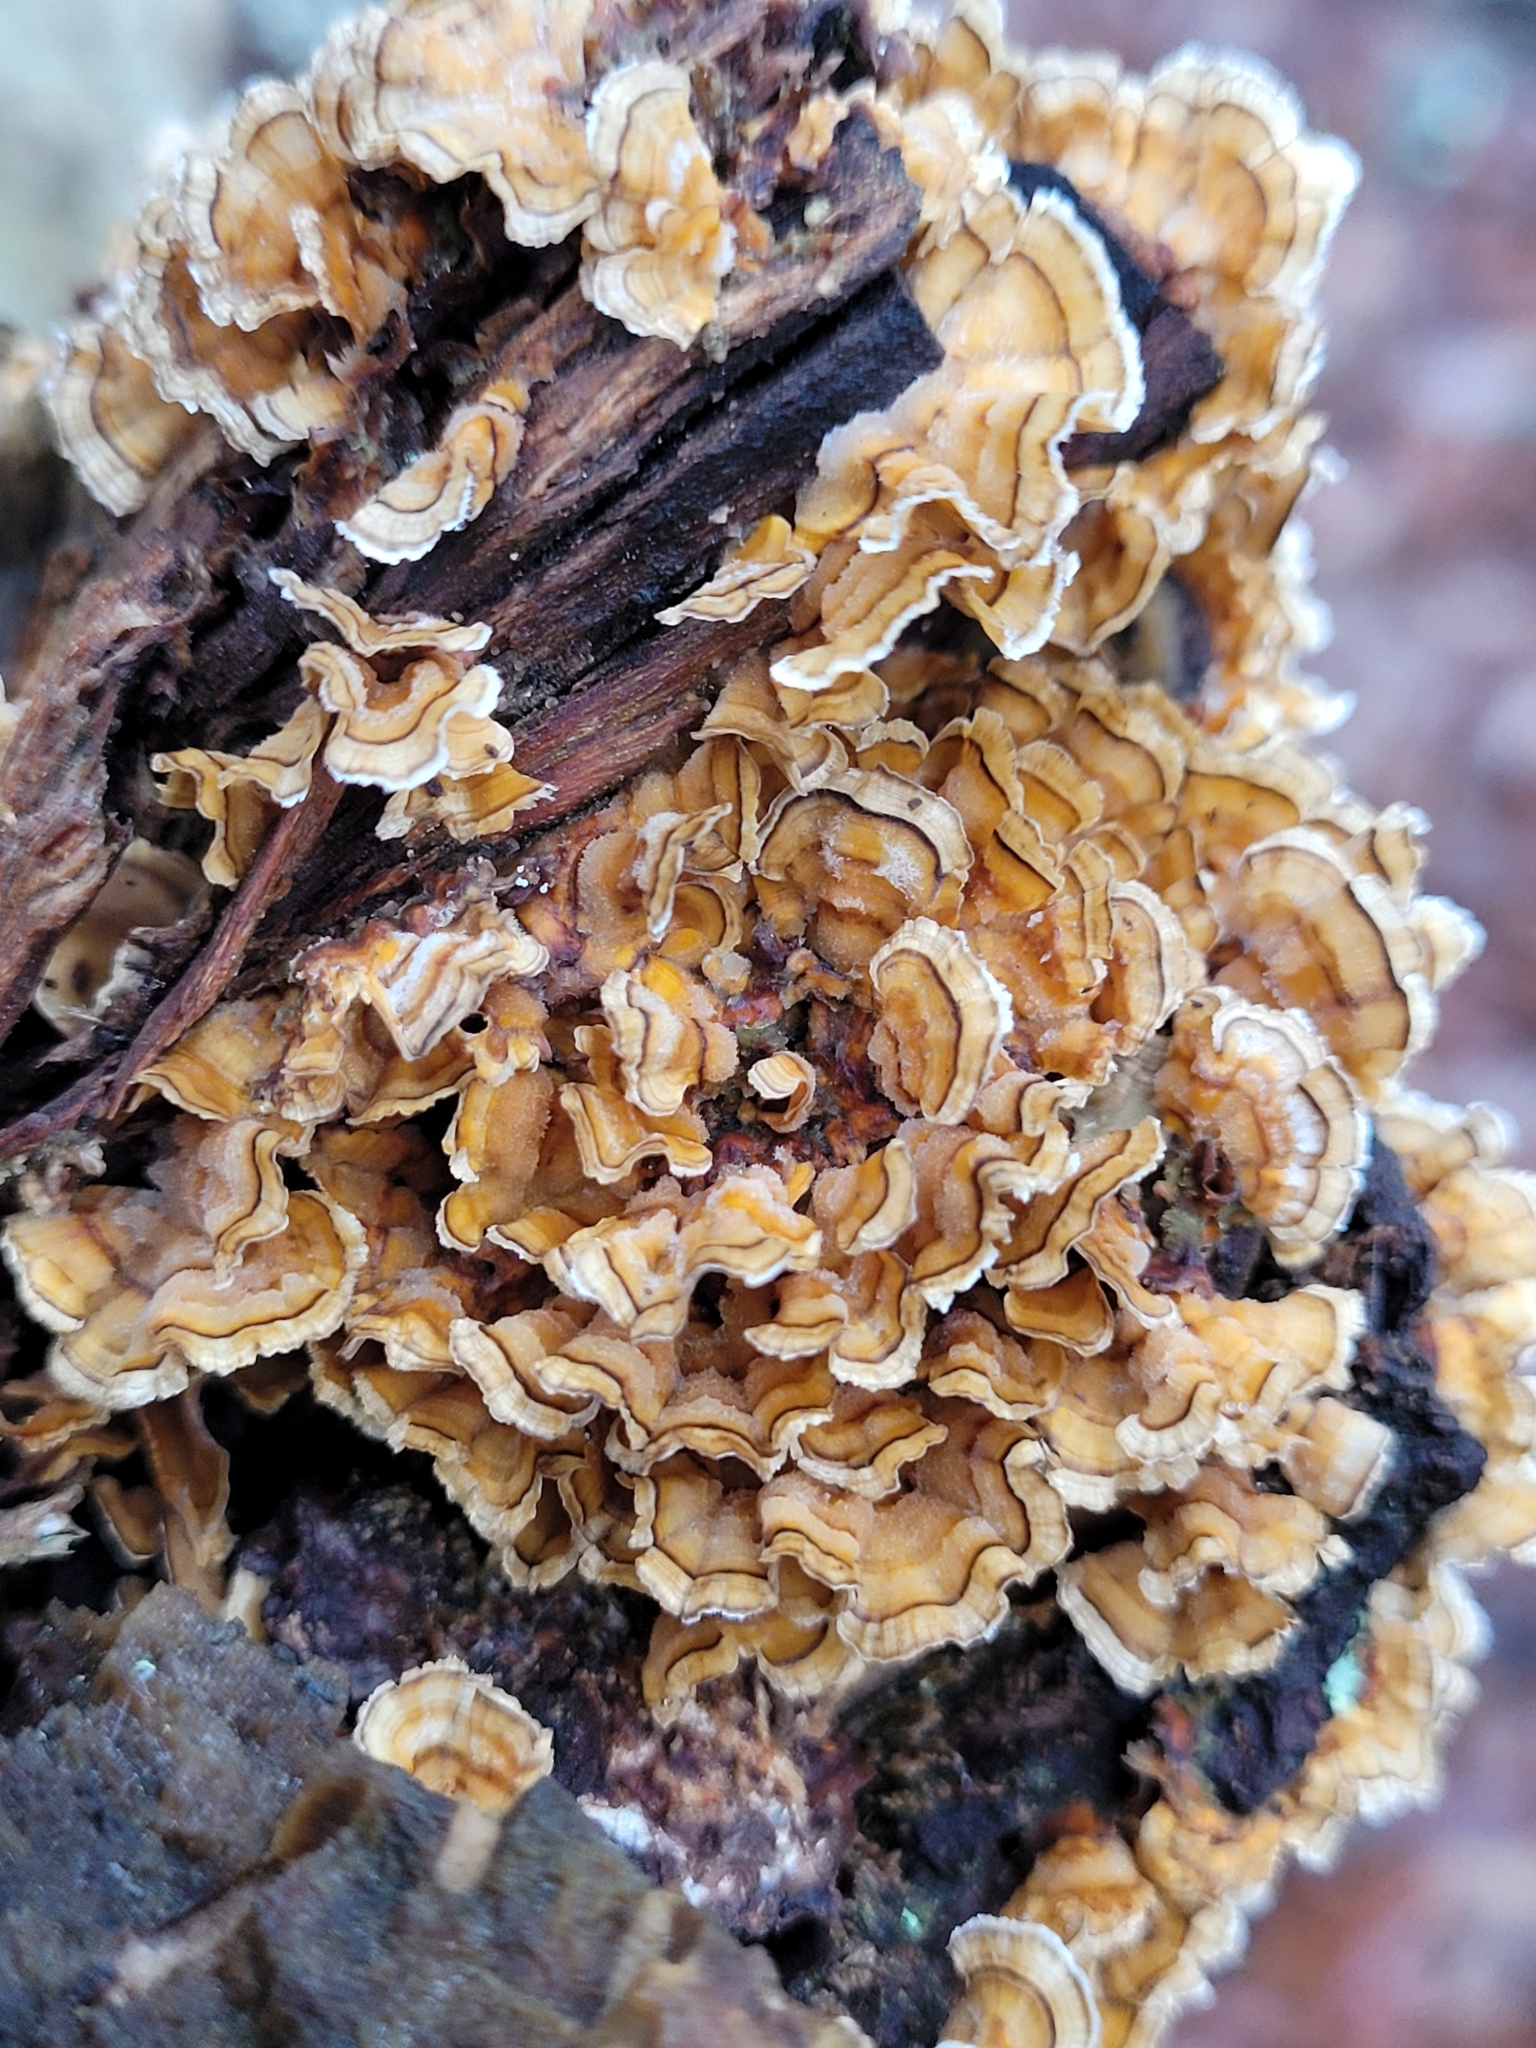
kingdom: Fungi
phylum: Basidiomycota
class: Agaricomycetes
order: Russulales
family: Stereaceae
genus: Stereum
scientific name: Stereum complicatum
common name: Crowded parchment
